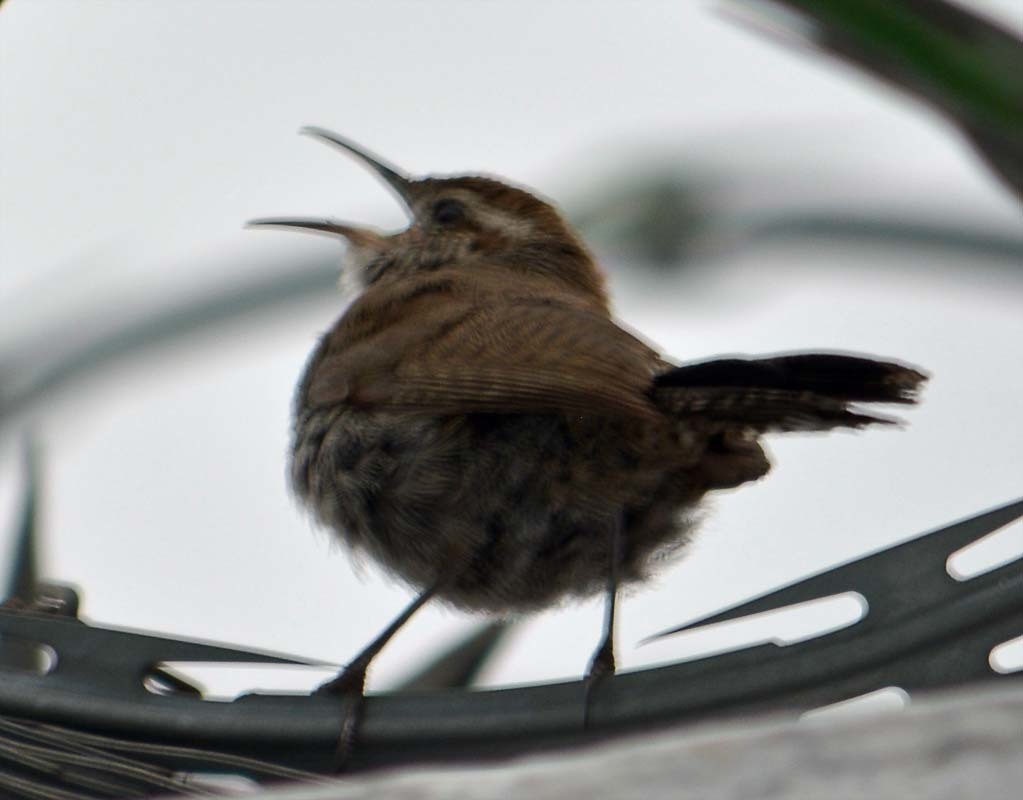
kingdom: Animalia
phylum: Chordata
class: Aves
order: Passeriformes
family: Troglodytidae
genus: Thryomanes
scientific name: Thryomanes bewickii
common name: Bewick's wren
